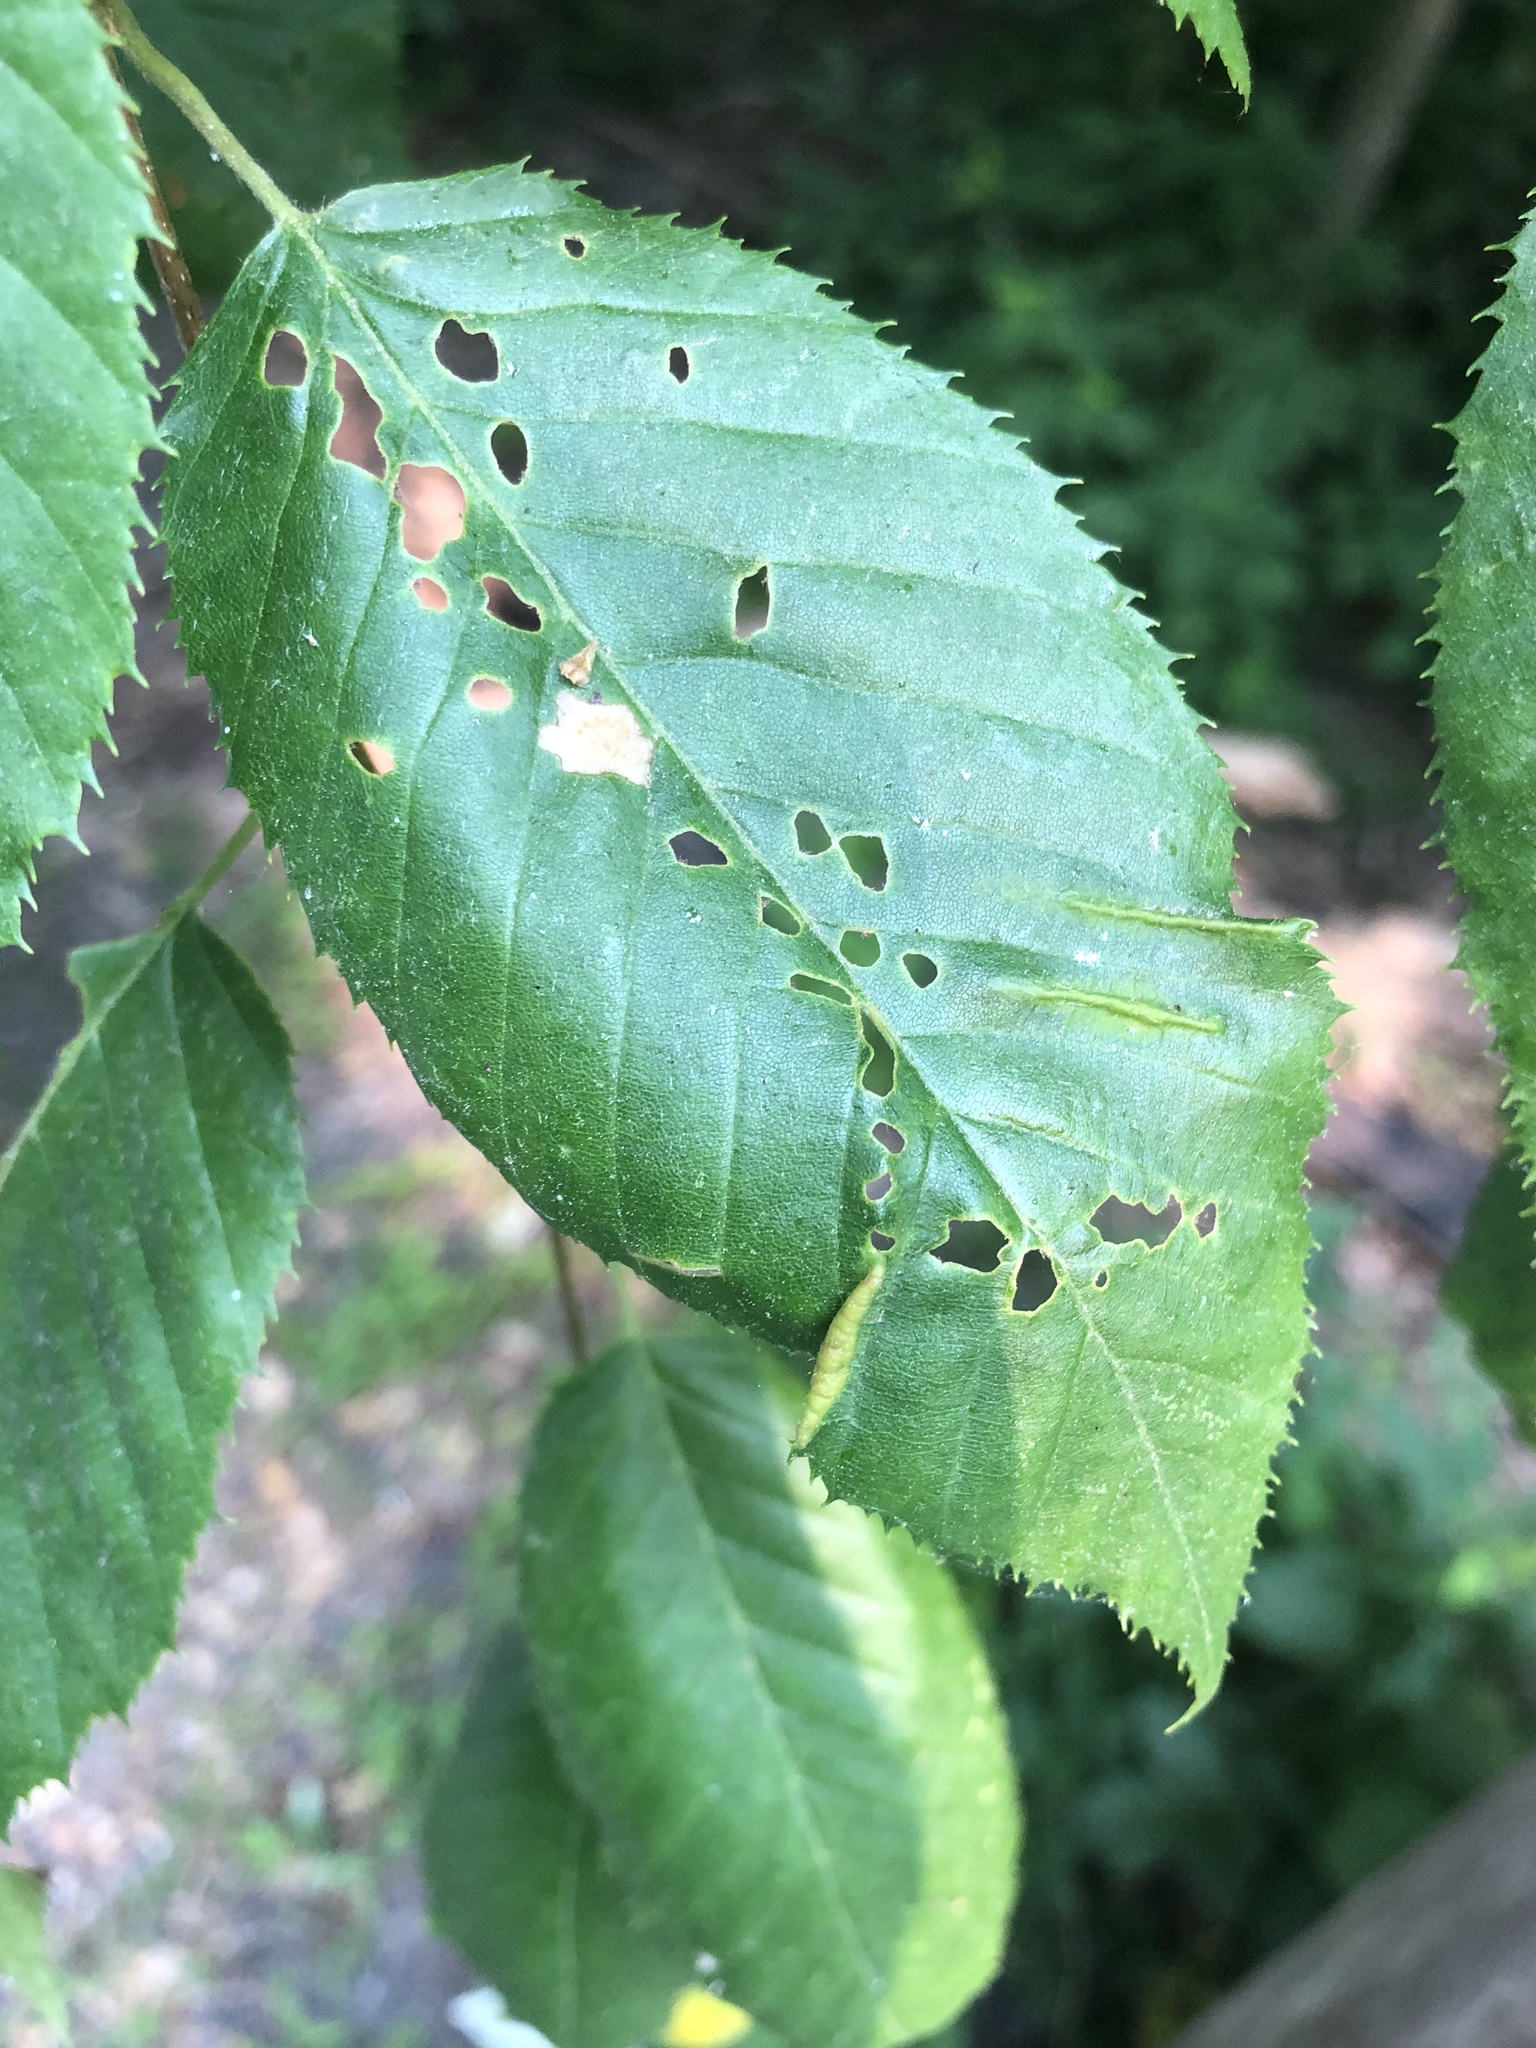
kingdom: Animalia
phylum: Arthropoda
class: Insecta
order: Diptera
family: Cecidomyiidae
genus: Dasineura
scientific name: Dasineura pudibunda
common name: Hornbeam leaf gall midge
